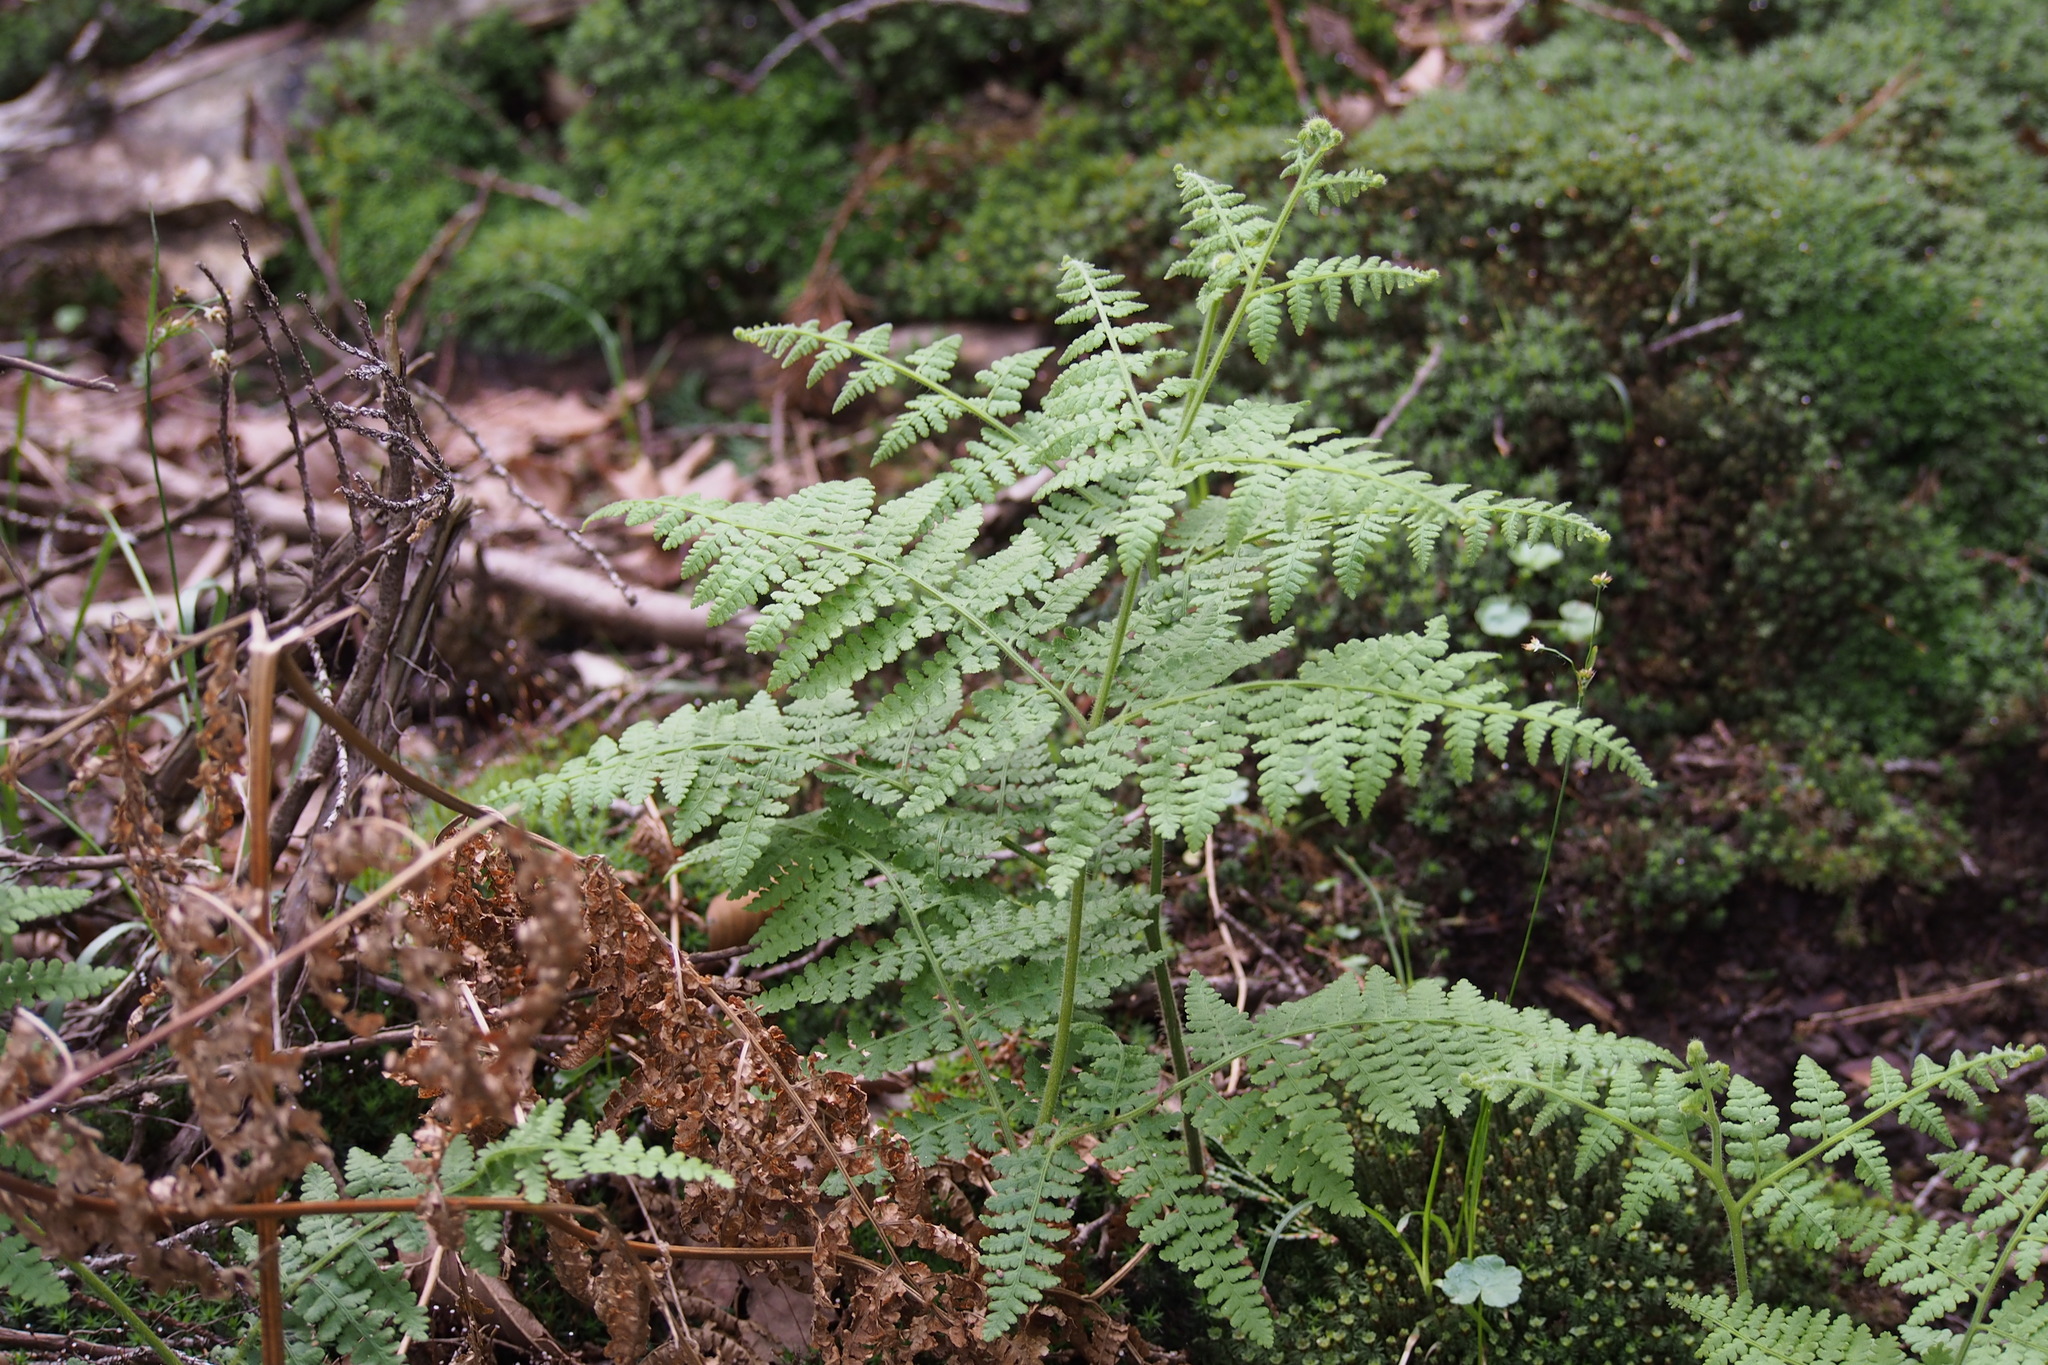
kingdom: Plantae
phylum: Tracheophyta
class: Polypodiopsida
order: Polypodiales
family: Dennstaedtiaceae
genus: Hypolepis
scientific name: Hypolepis punctata
